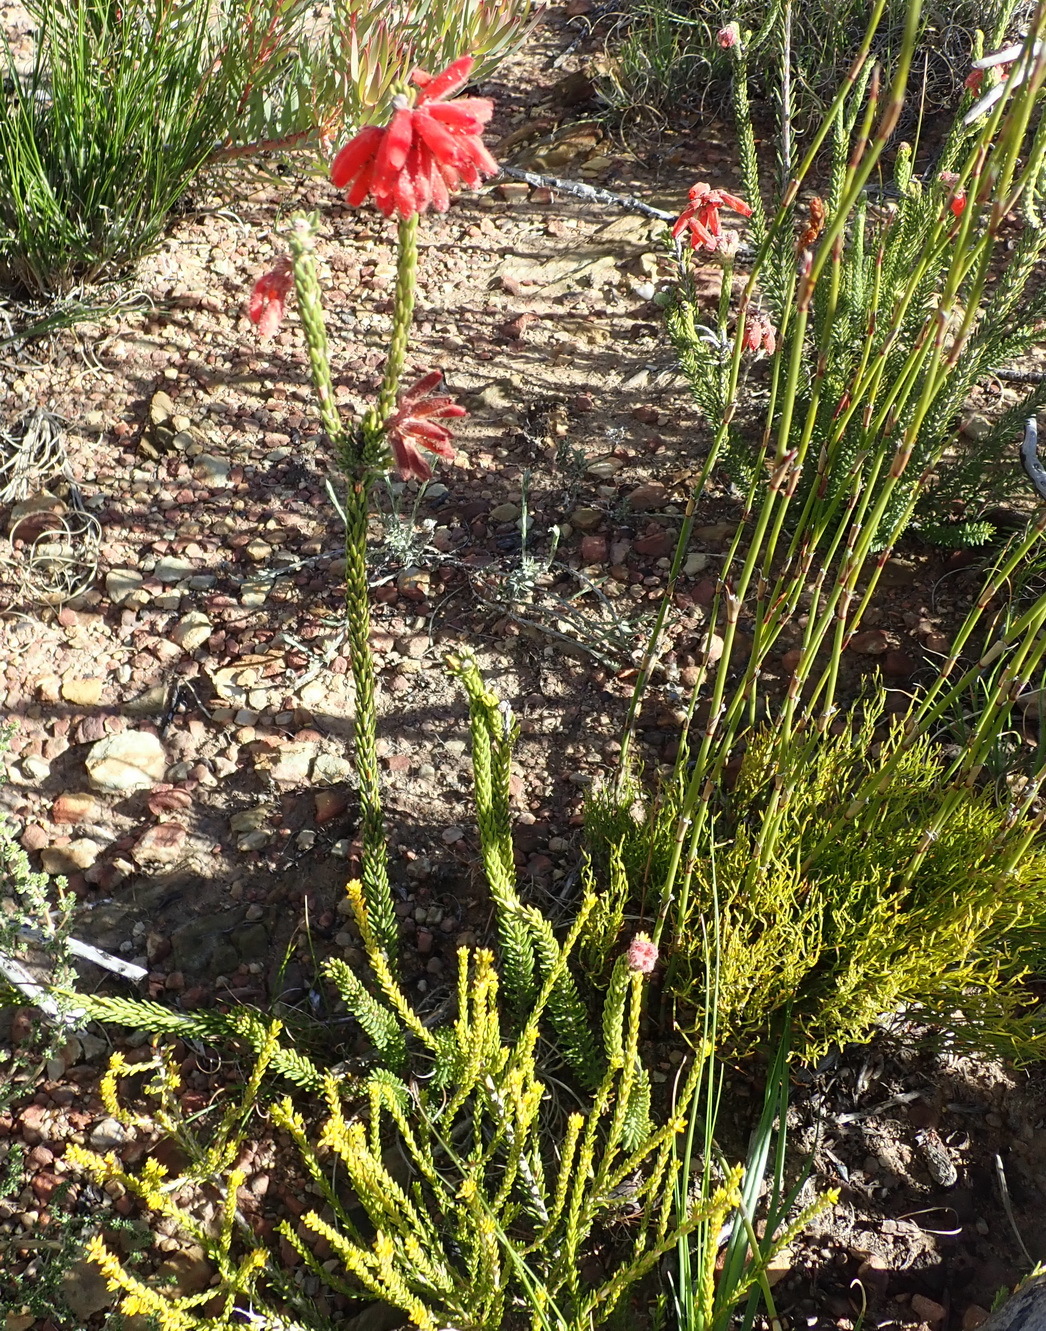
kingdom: Plantae
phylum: Tracheophyta
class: Magnoliopsida
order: Ericales
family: Ericaceae
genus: Erica
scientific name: Erica cerinthoides
